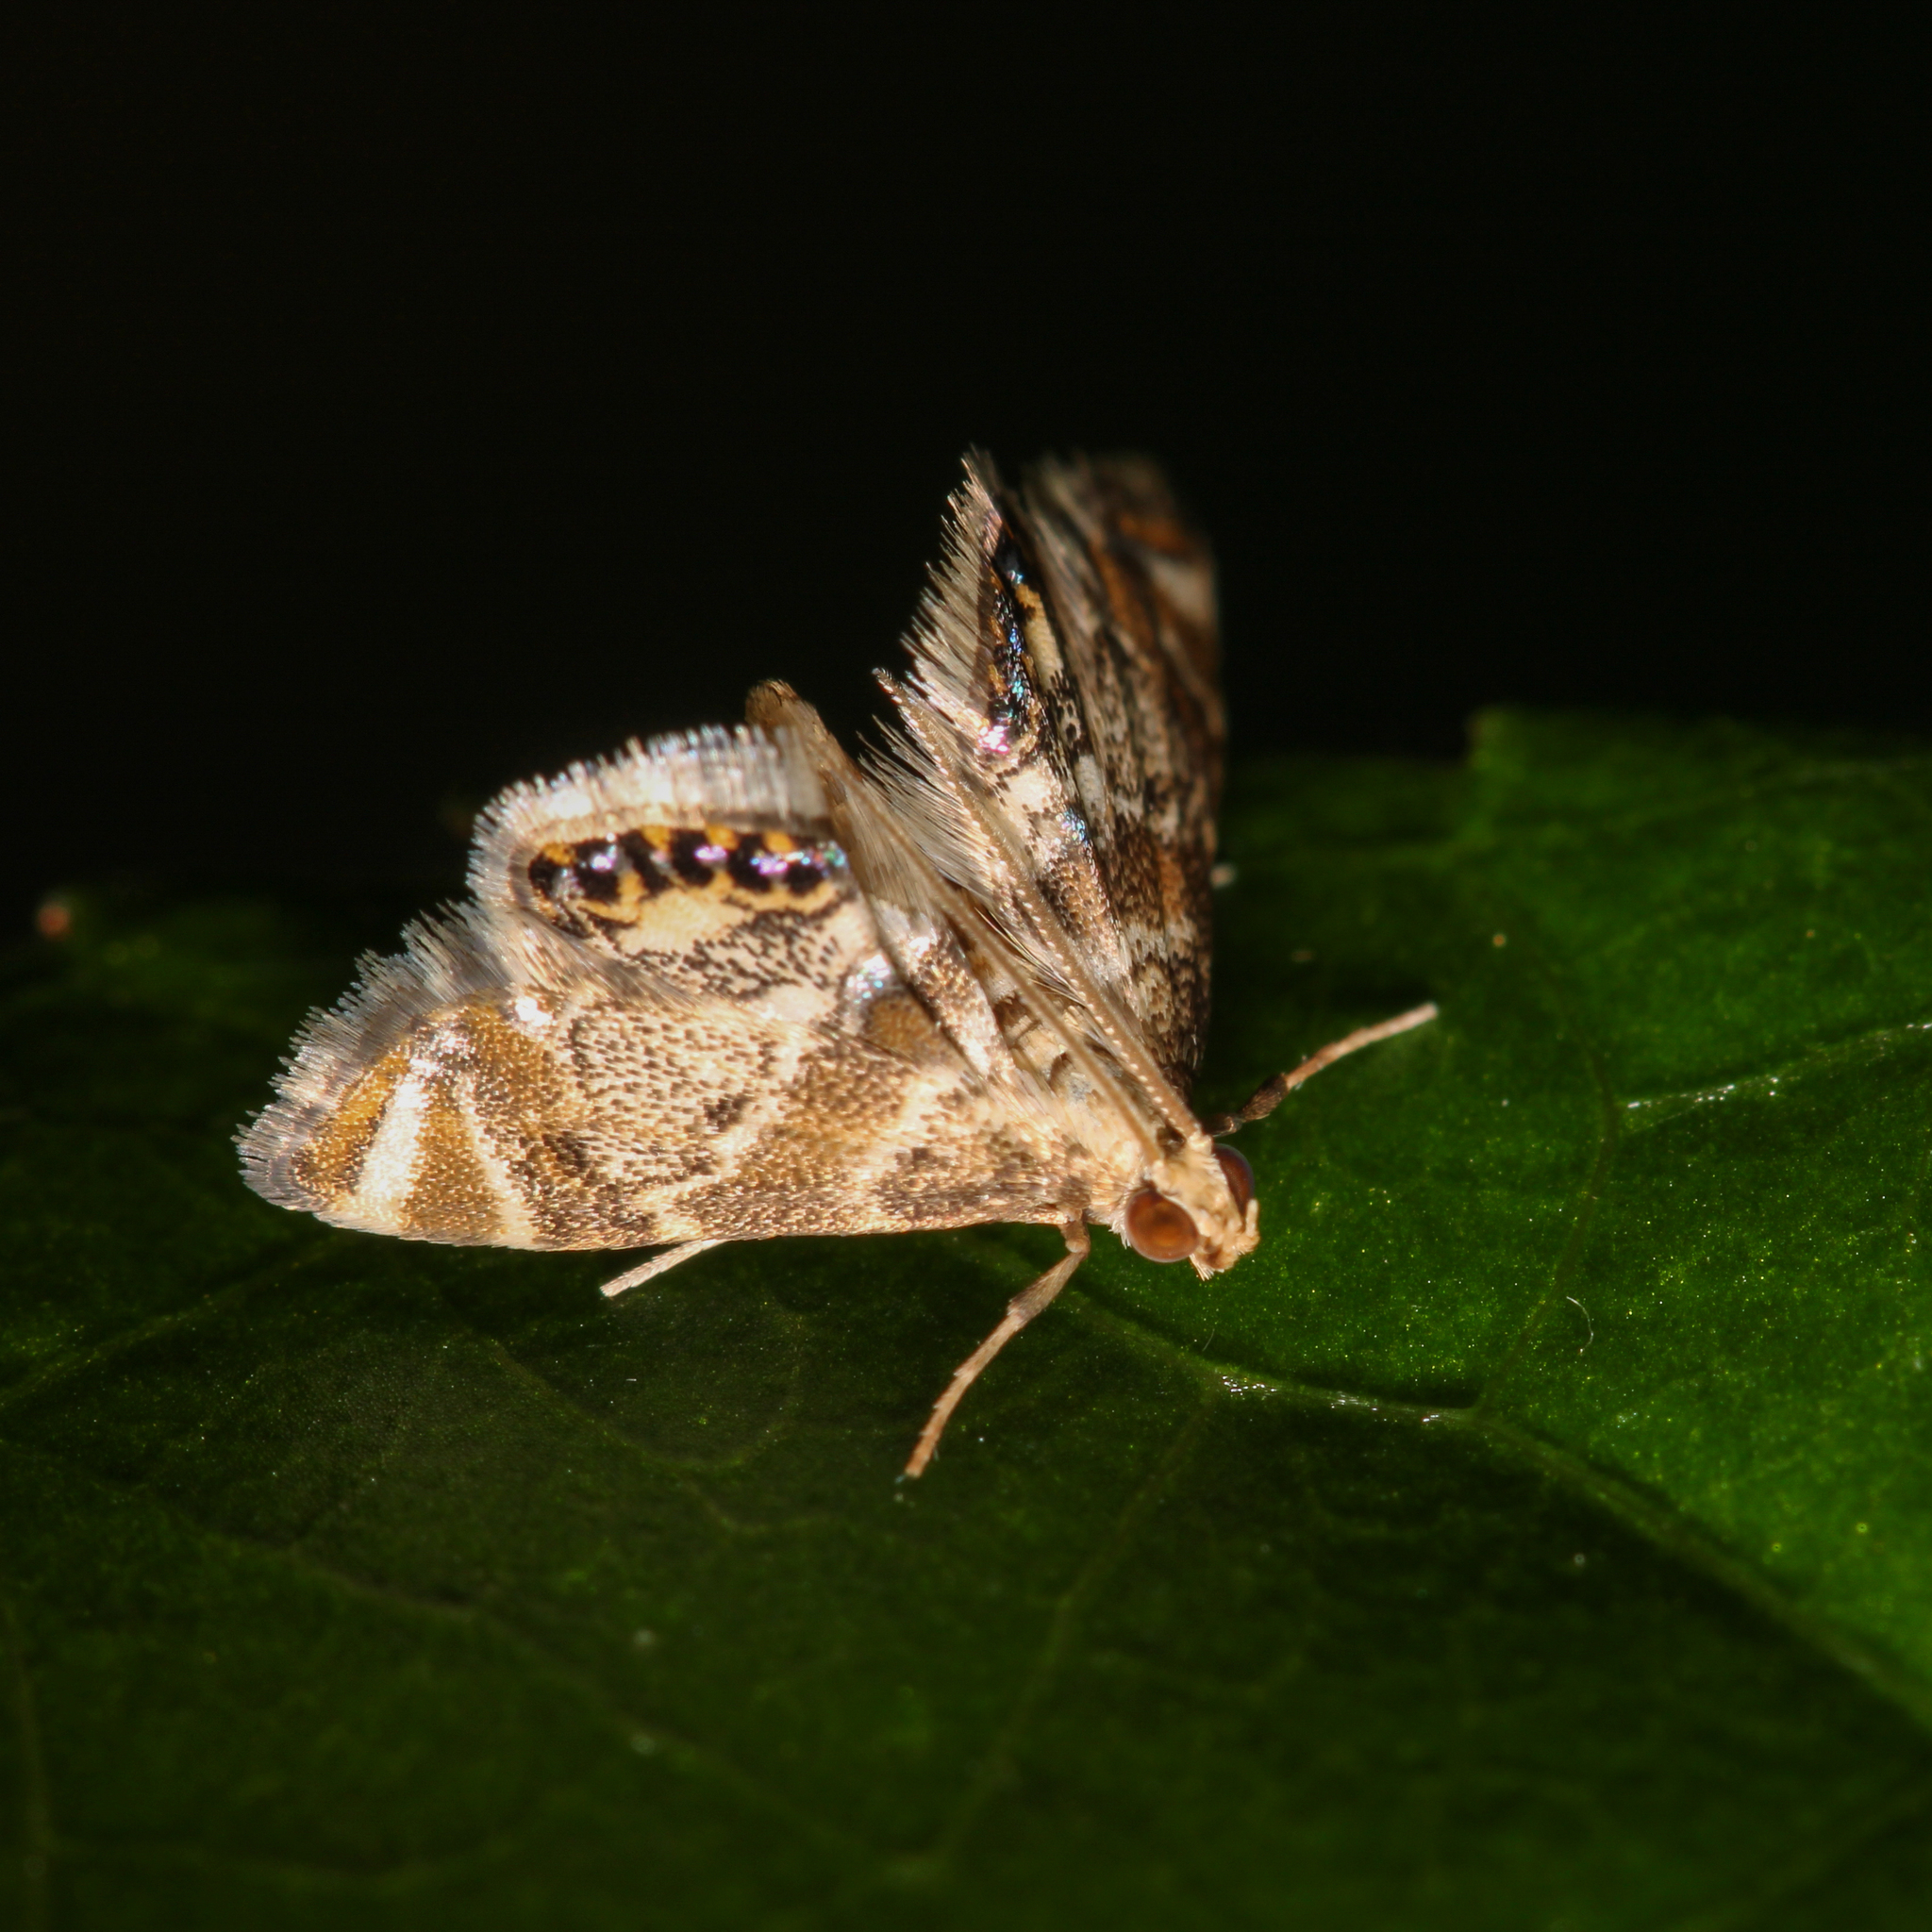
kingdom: Animalia
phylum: Arthropoda
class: Insecta
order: Lepidoptera
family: Crambidae
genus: Petrophila
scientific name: Petrophila fulicalis
